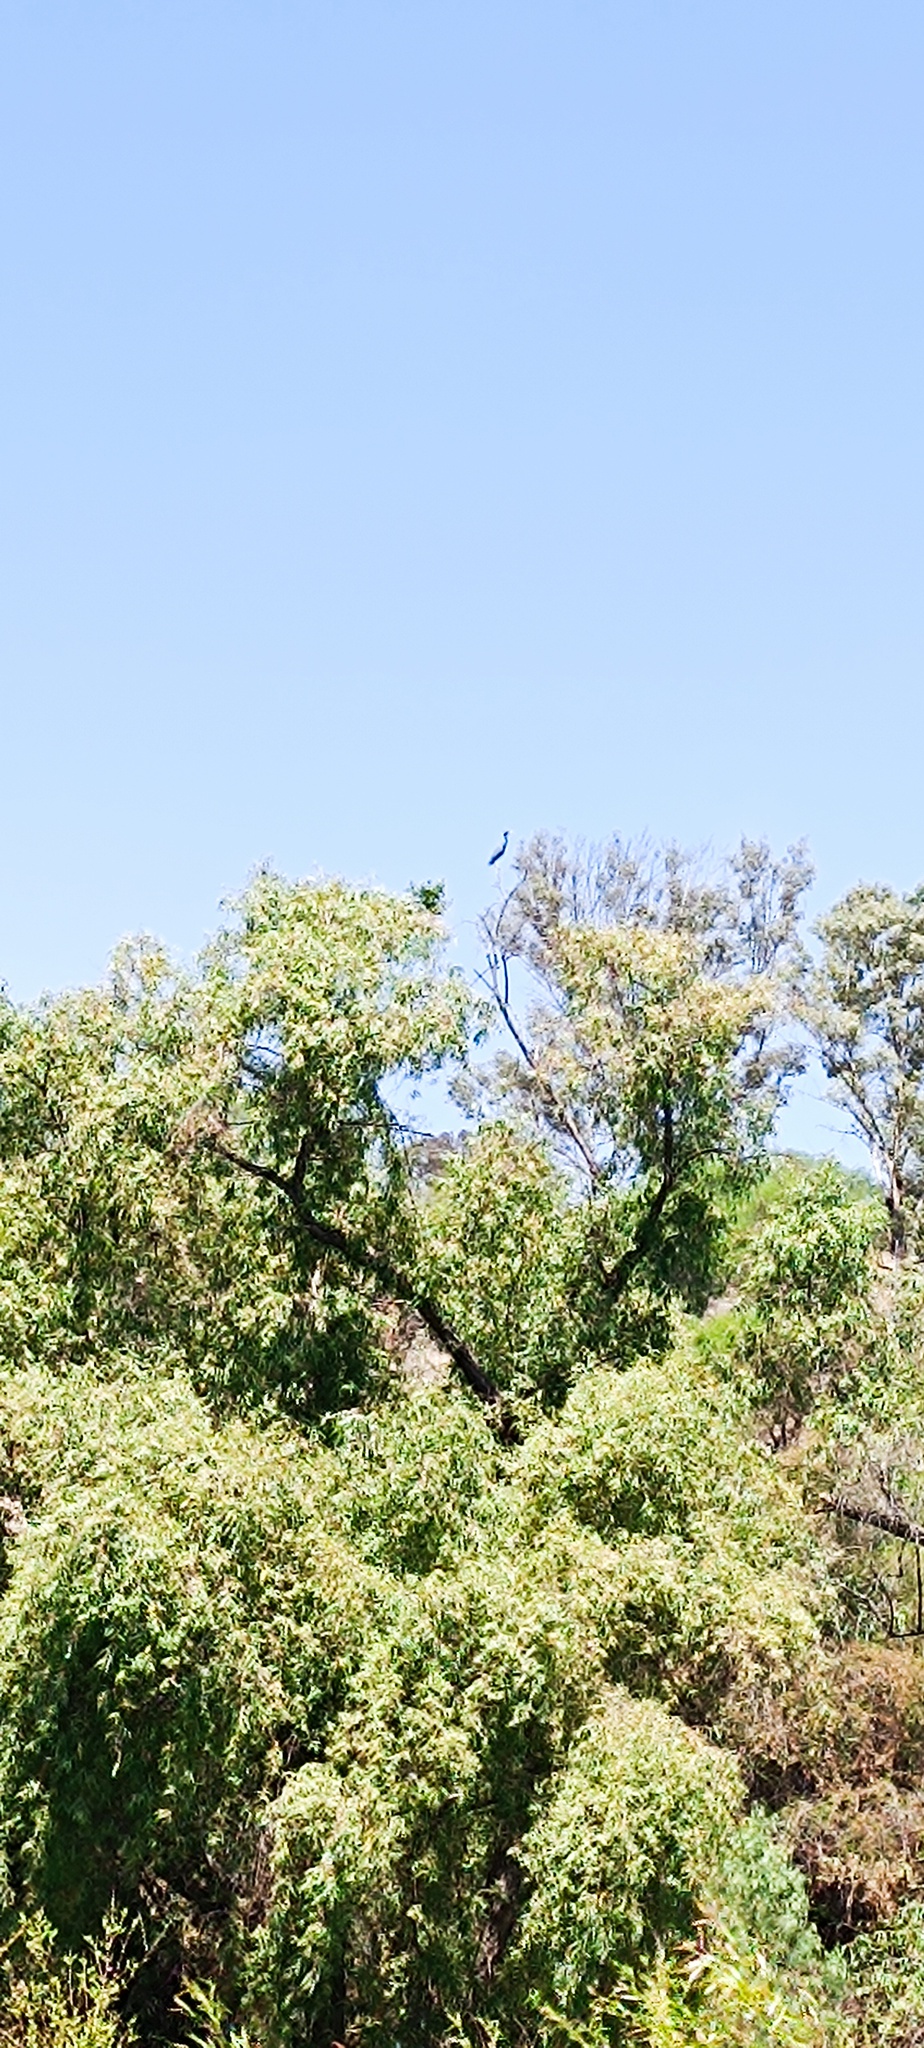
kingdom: Animalia
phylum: Chordata
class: Aves
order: Pelecaniformes
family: Ardeidae
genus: Egretta
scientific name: Egretta caerulea
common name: Little blue heron
